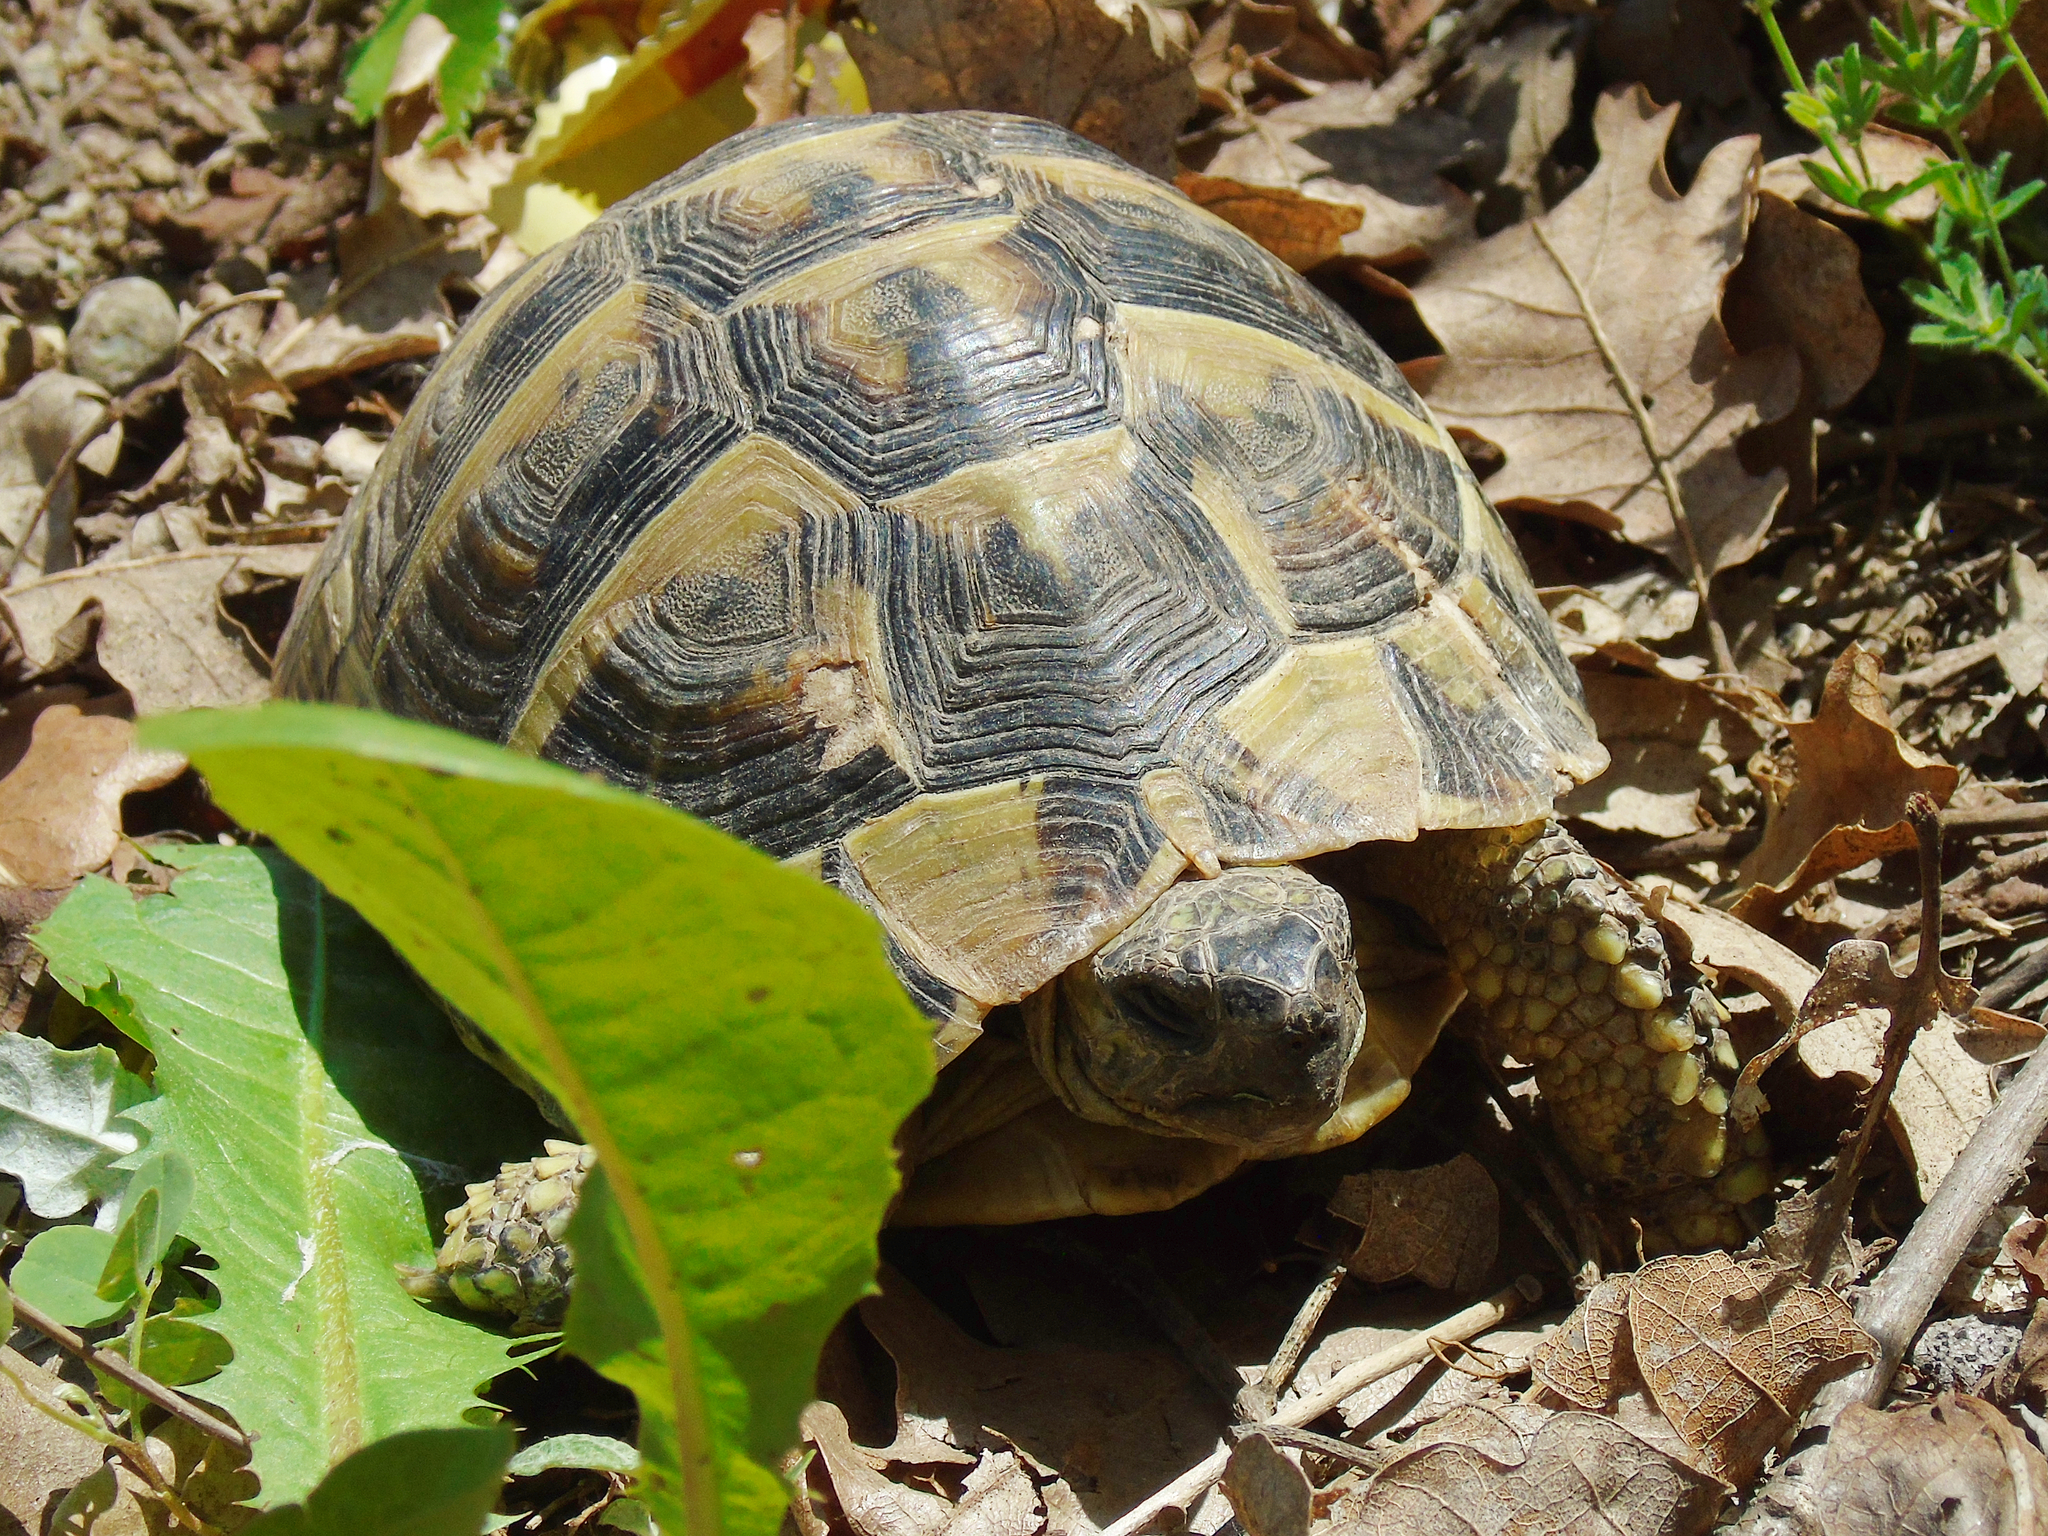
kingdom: Animalia
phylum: Chordata
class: Testudines
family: Testudinidae
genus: Testudo
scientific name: Testudo hermanni
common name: Hermann's tortoise
